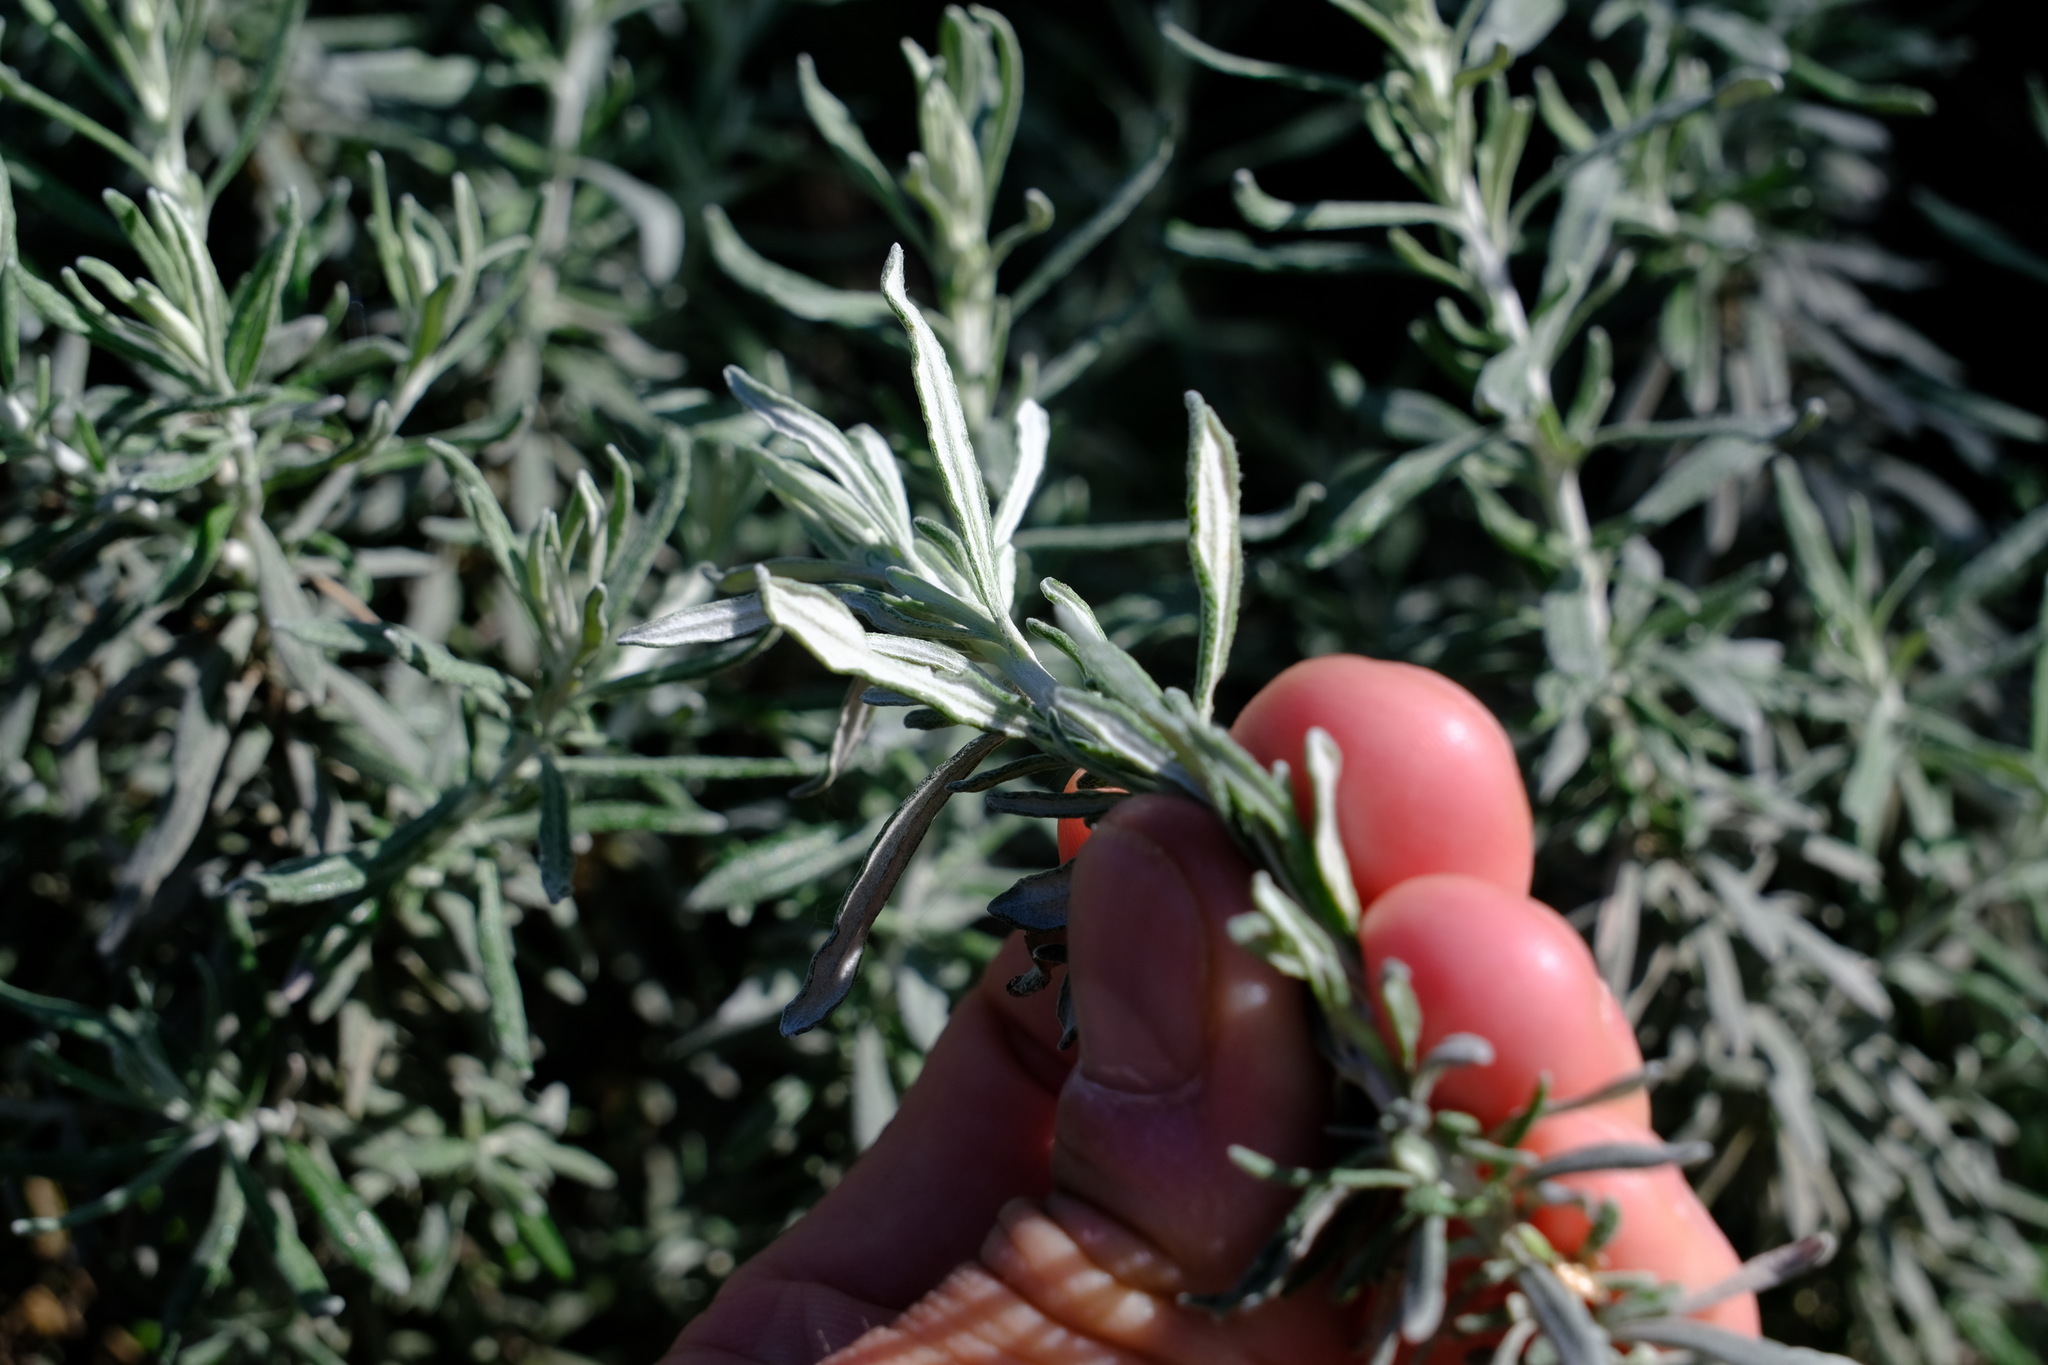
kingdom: Plantae
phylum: Tracheophyta
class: Magnoliopsida
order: Asterales
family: Asteraceae
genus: Olearia
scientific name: Olearia axillaris
